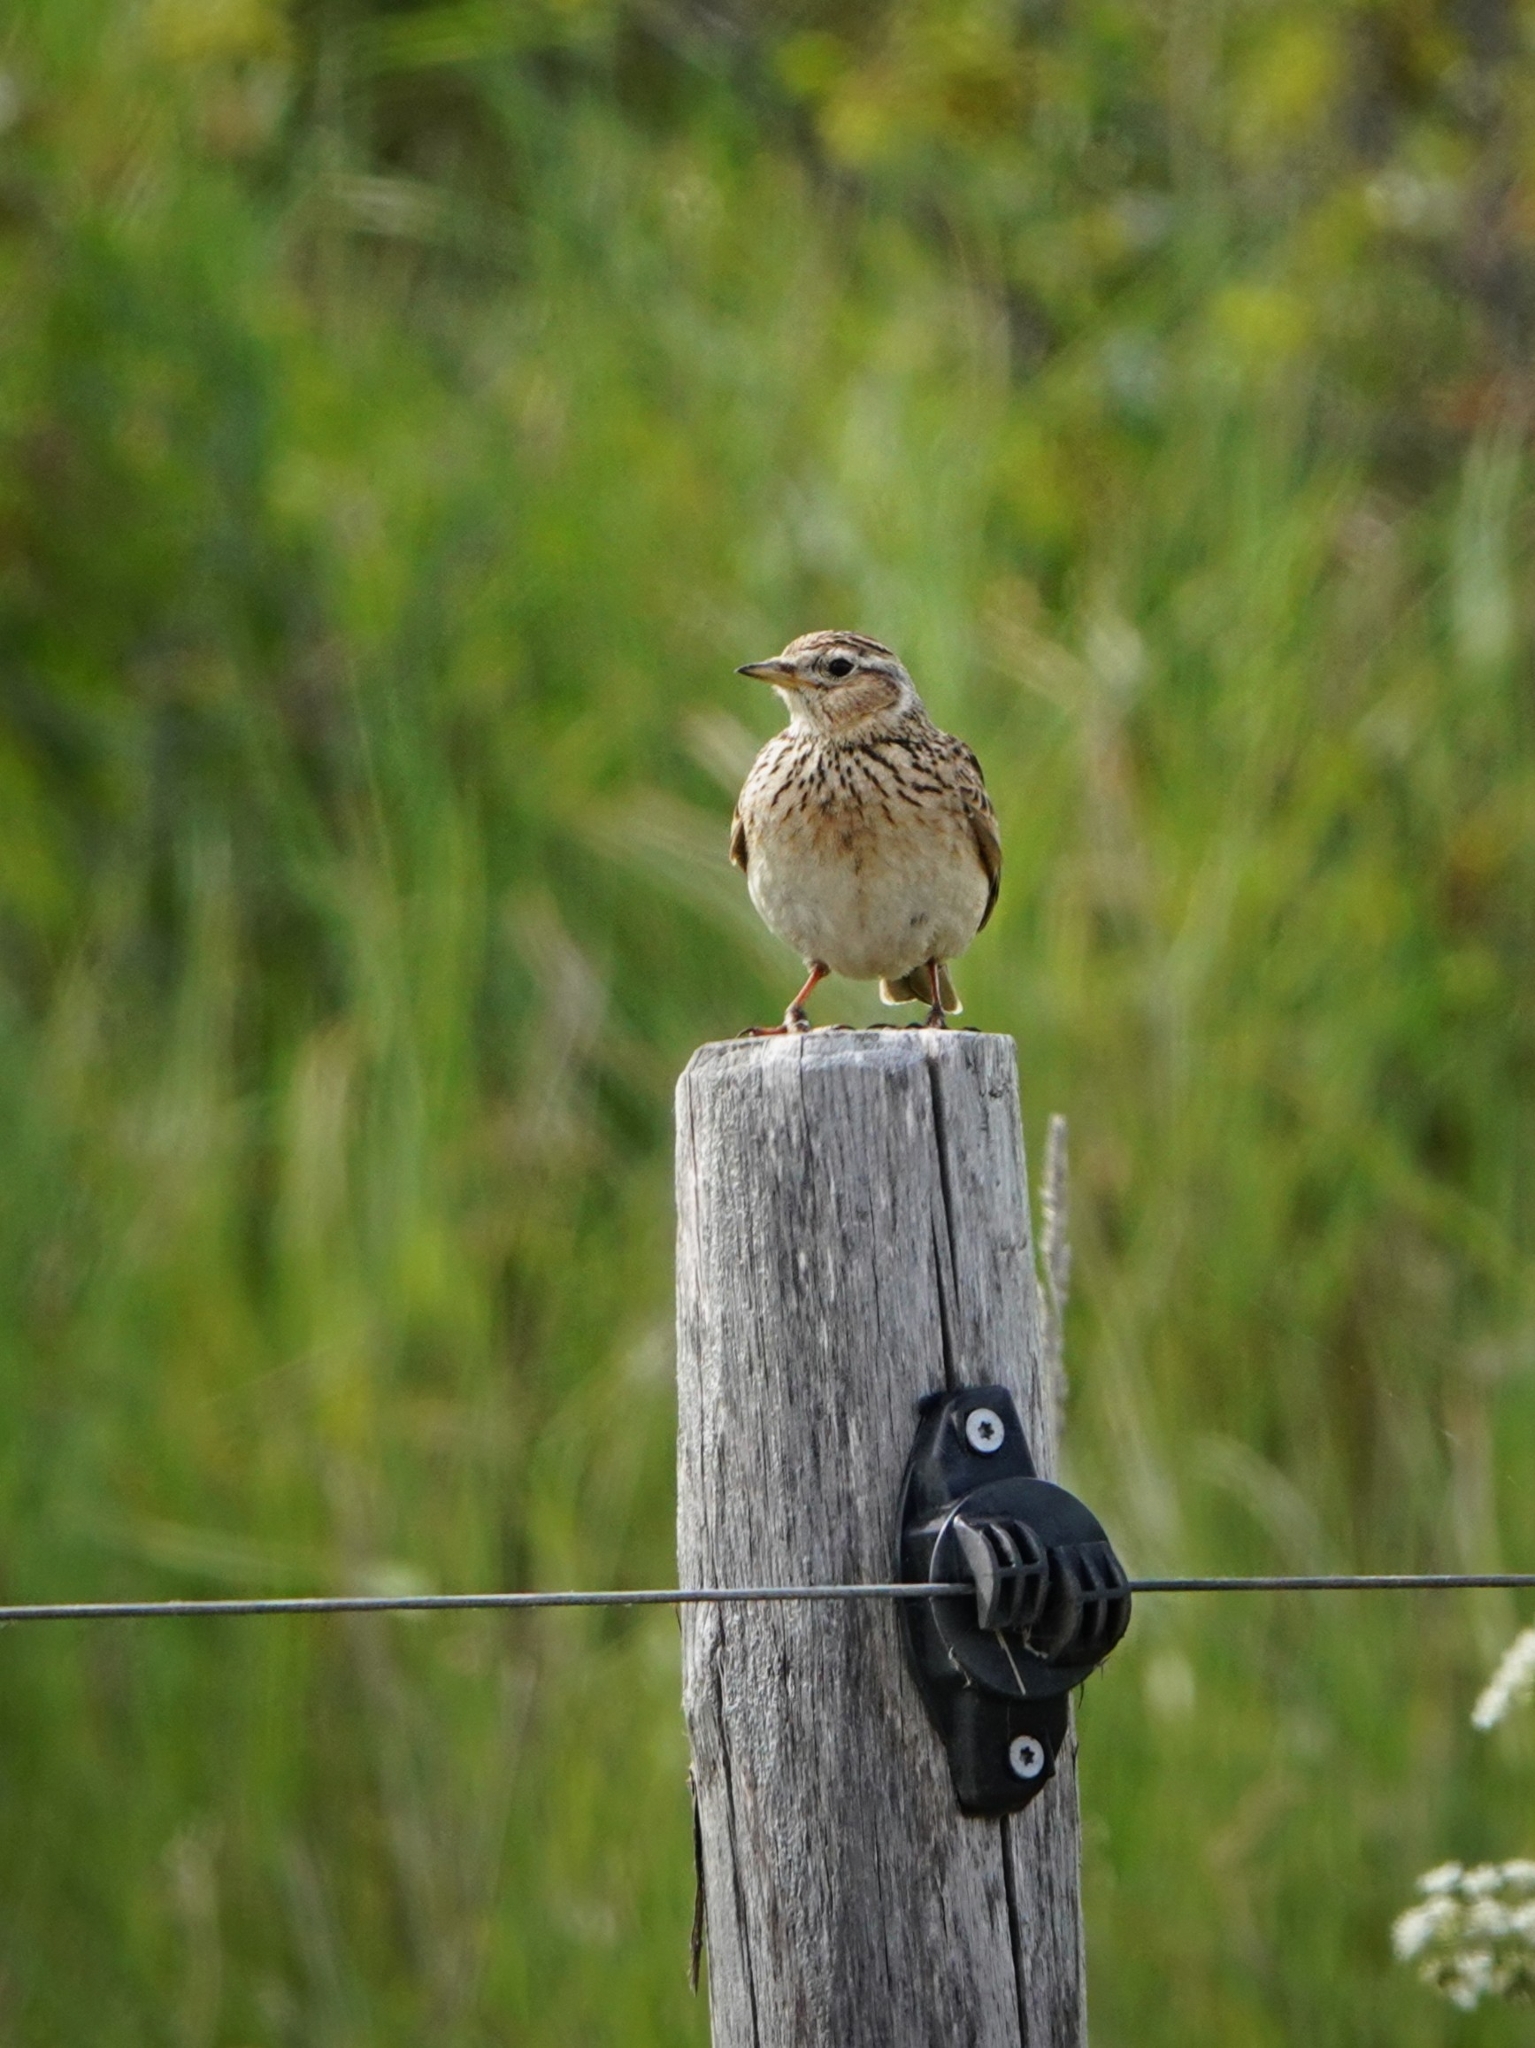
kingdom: Animalia
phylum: Chordata
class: Aves
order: Passeriformes
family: Alaudidae
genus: Lullula
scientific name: Lullula arborea
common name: Woodlark
